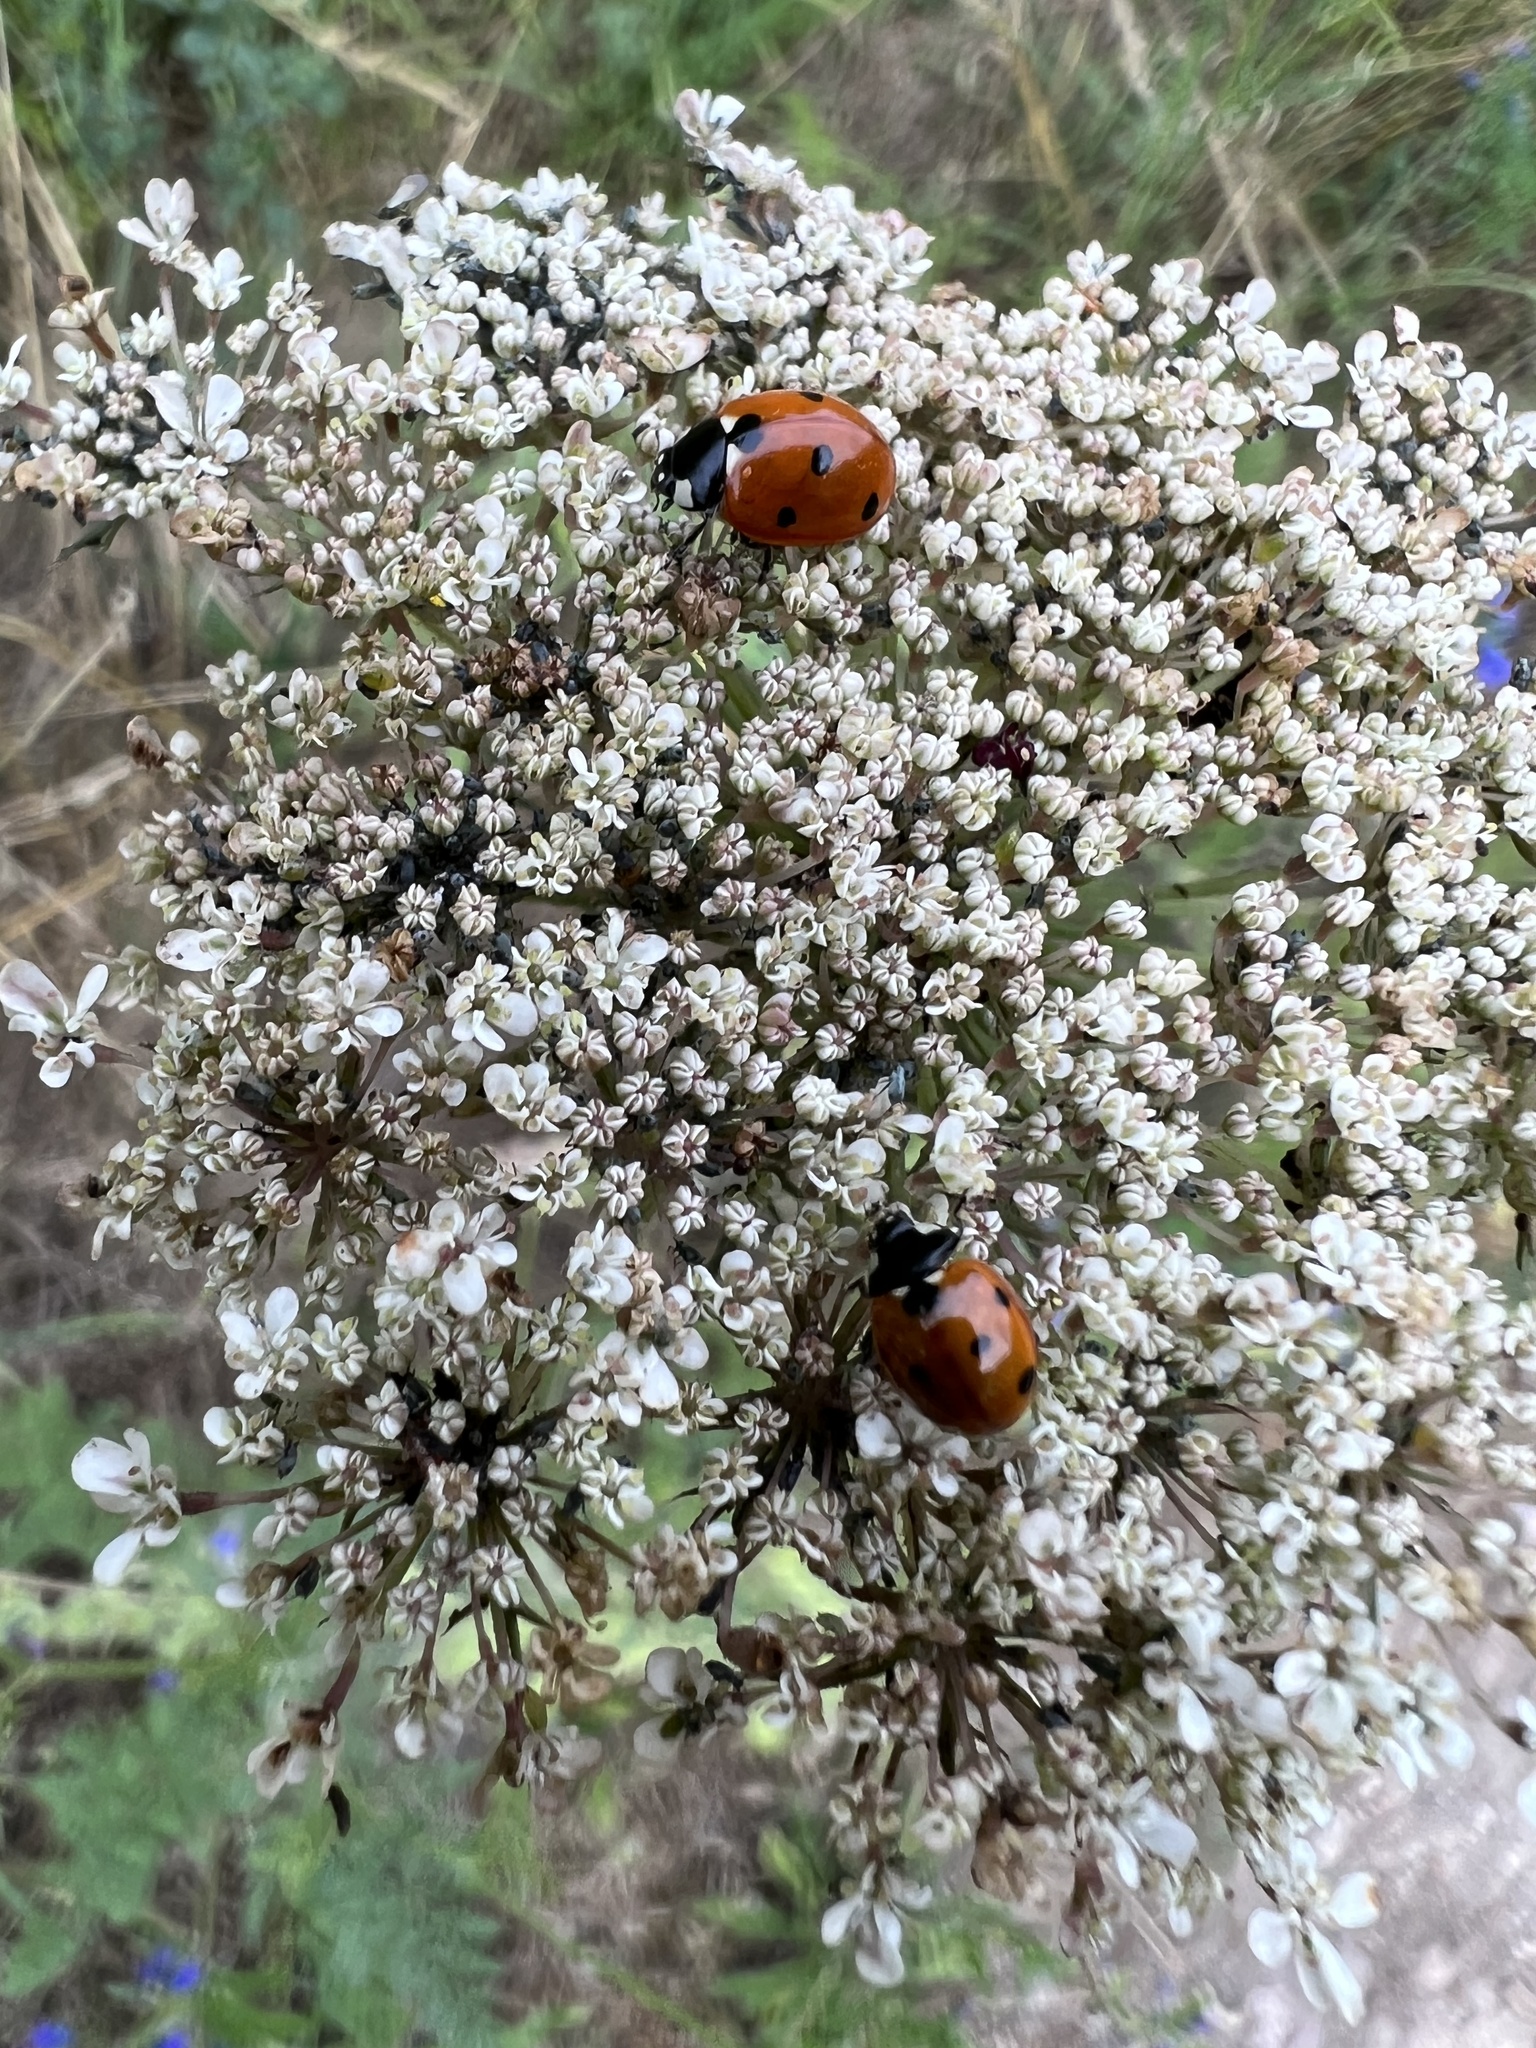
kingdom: Animalia
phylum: Arthropoda
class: Insecta
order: Coleoptera
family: Coccinellidae
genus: Coccinella
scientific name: Coccinella septempunctata
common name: Sevenspotted lady beetle
